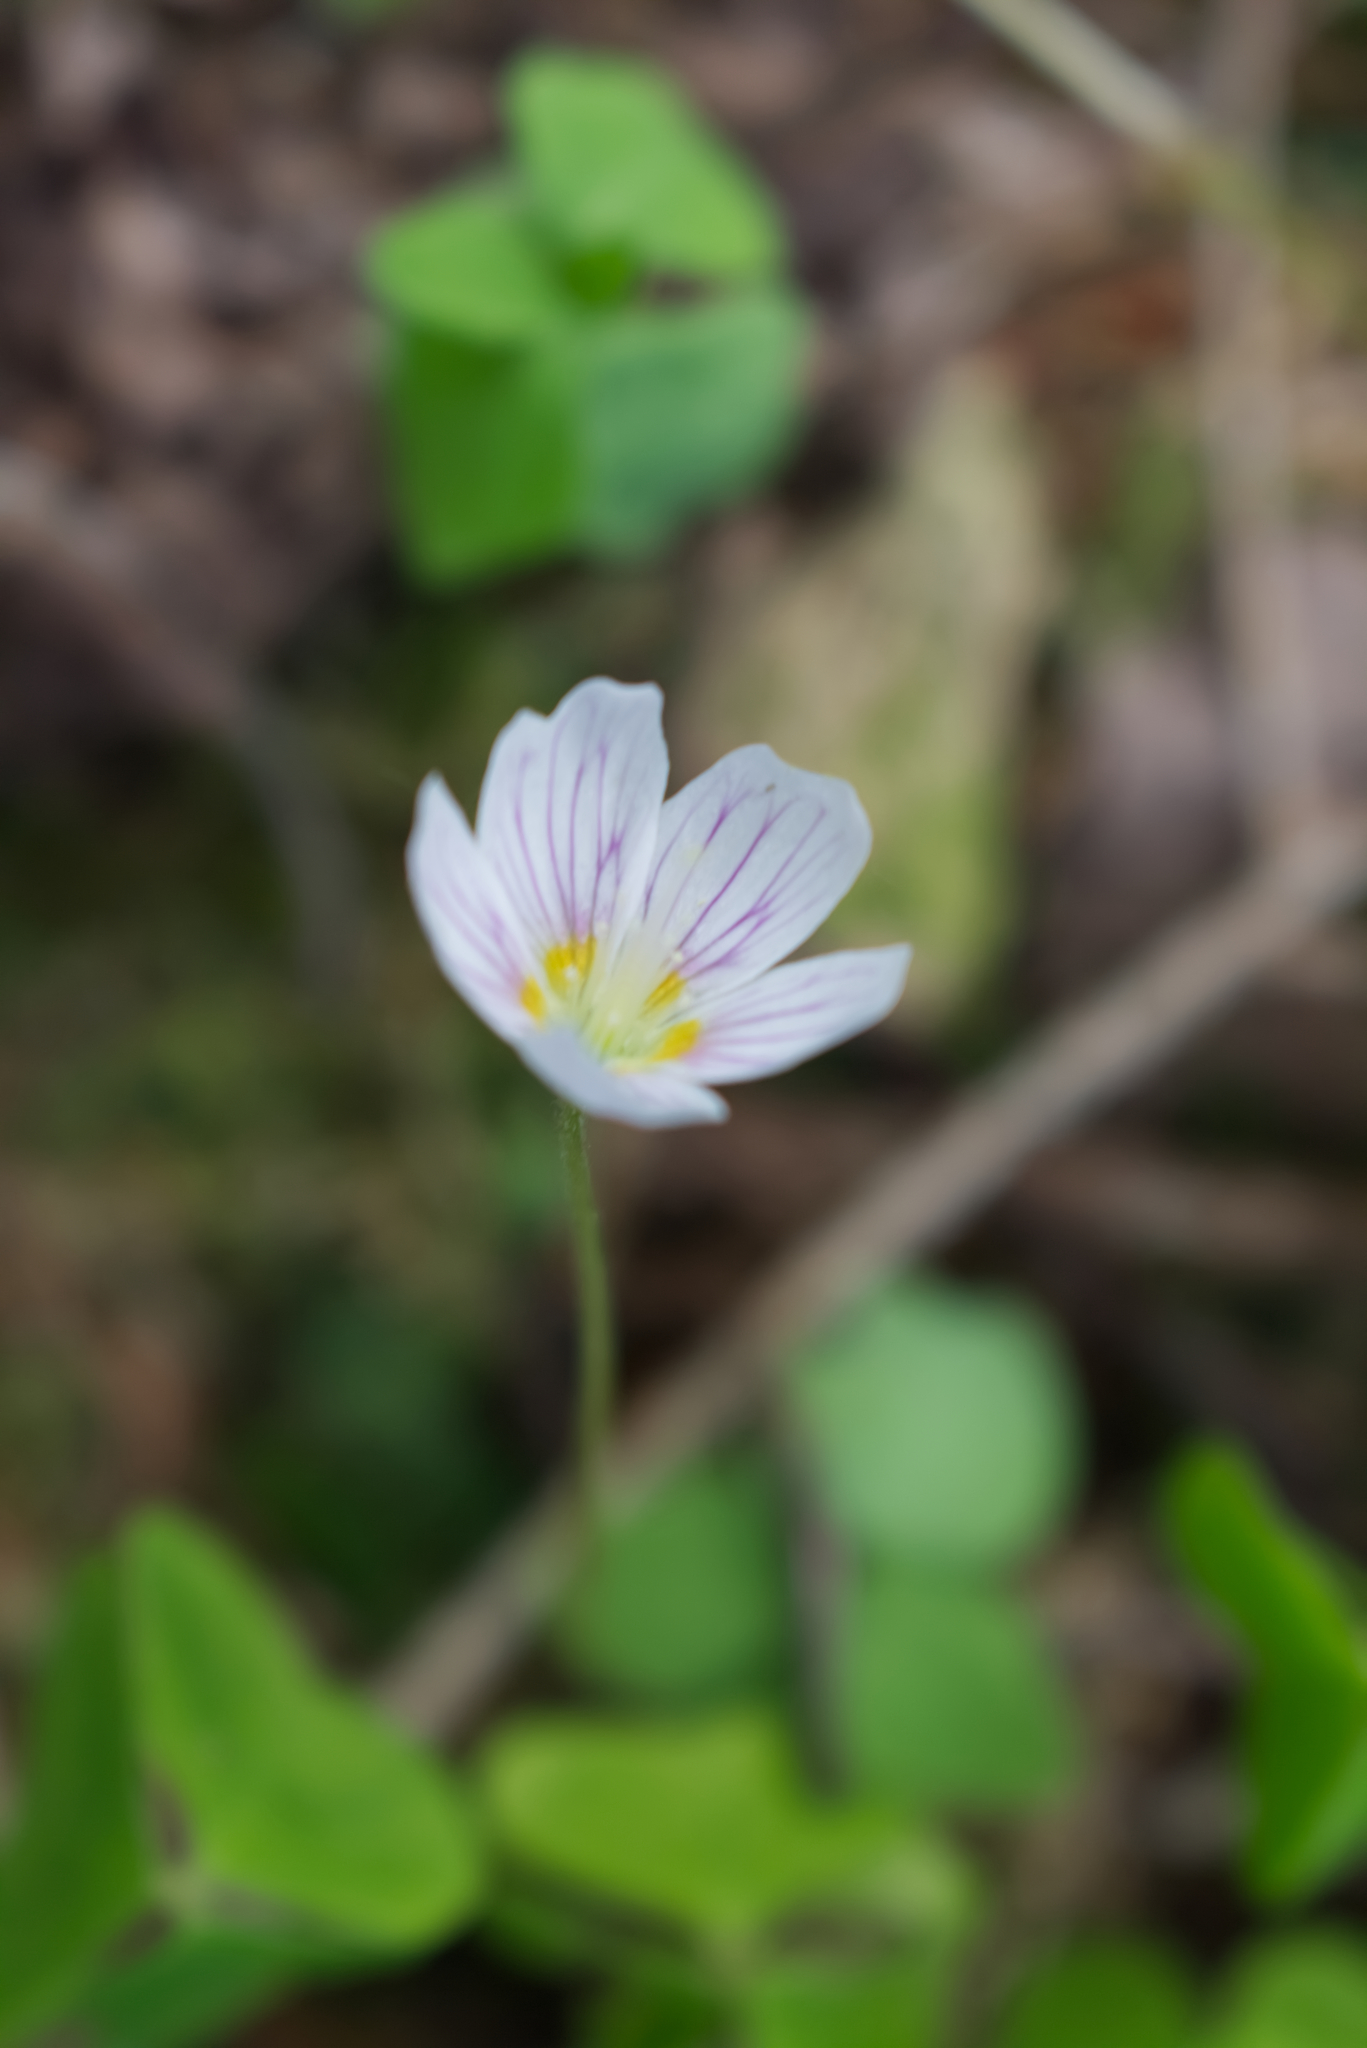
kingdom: Plantae
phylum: Tracheophyta
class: Magnoliopsida
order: Oxalidales
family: Oxalidaceae
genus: Oxalis
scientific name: Oxalis acetosella
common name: Wood-sorrel
